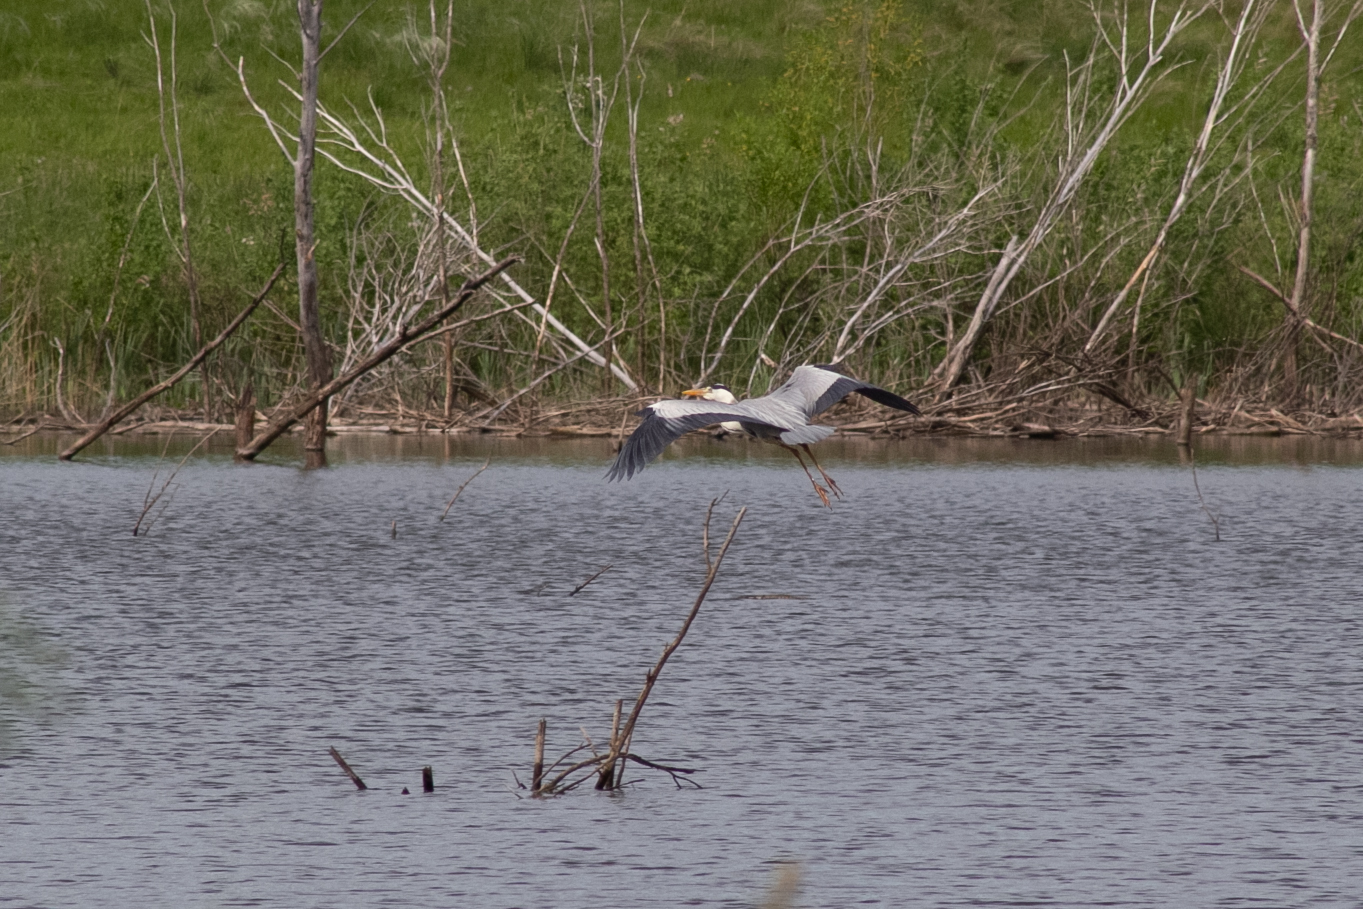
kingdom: Animalia
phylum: Chordata
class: Aves
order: Pelecaniformes
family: Ardeidae
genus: Ardea
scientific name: Ardea cinerea
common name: Grey heron
